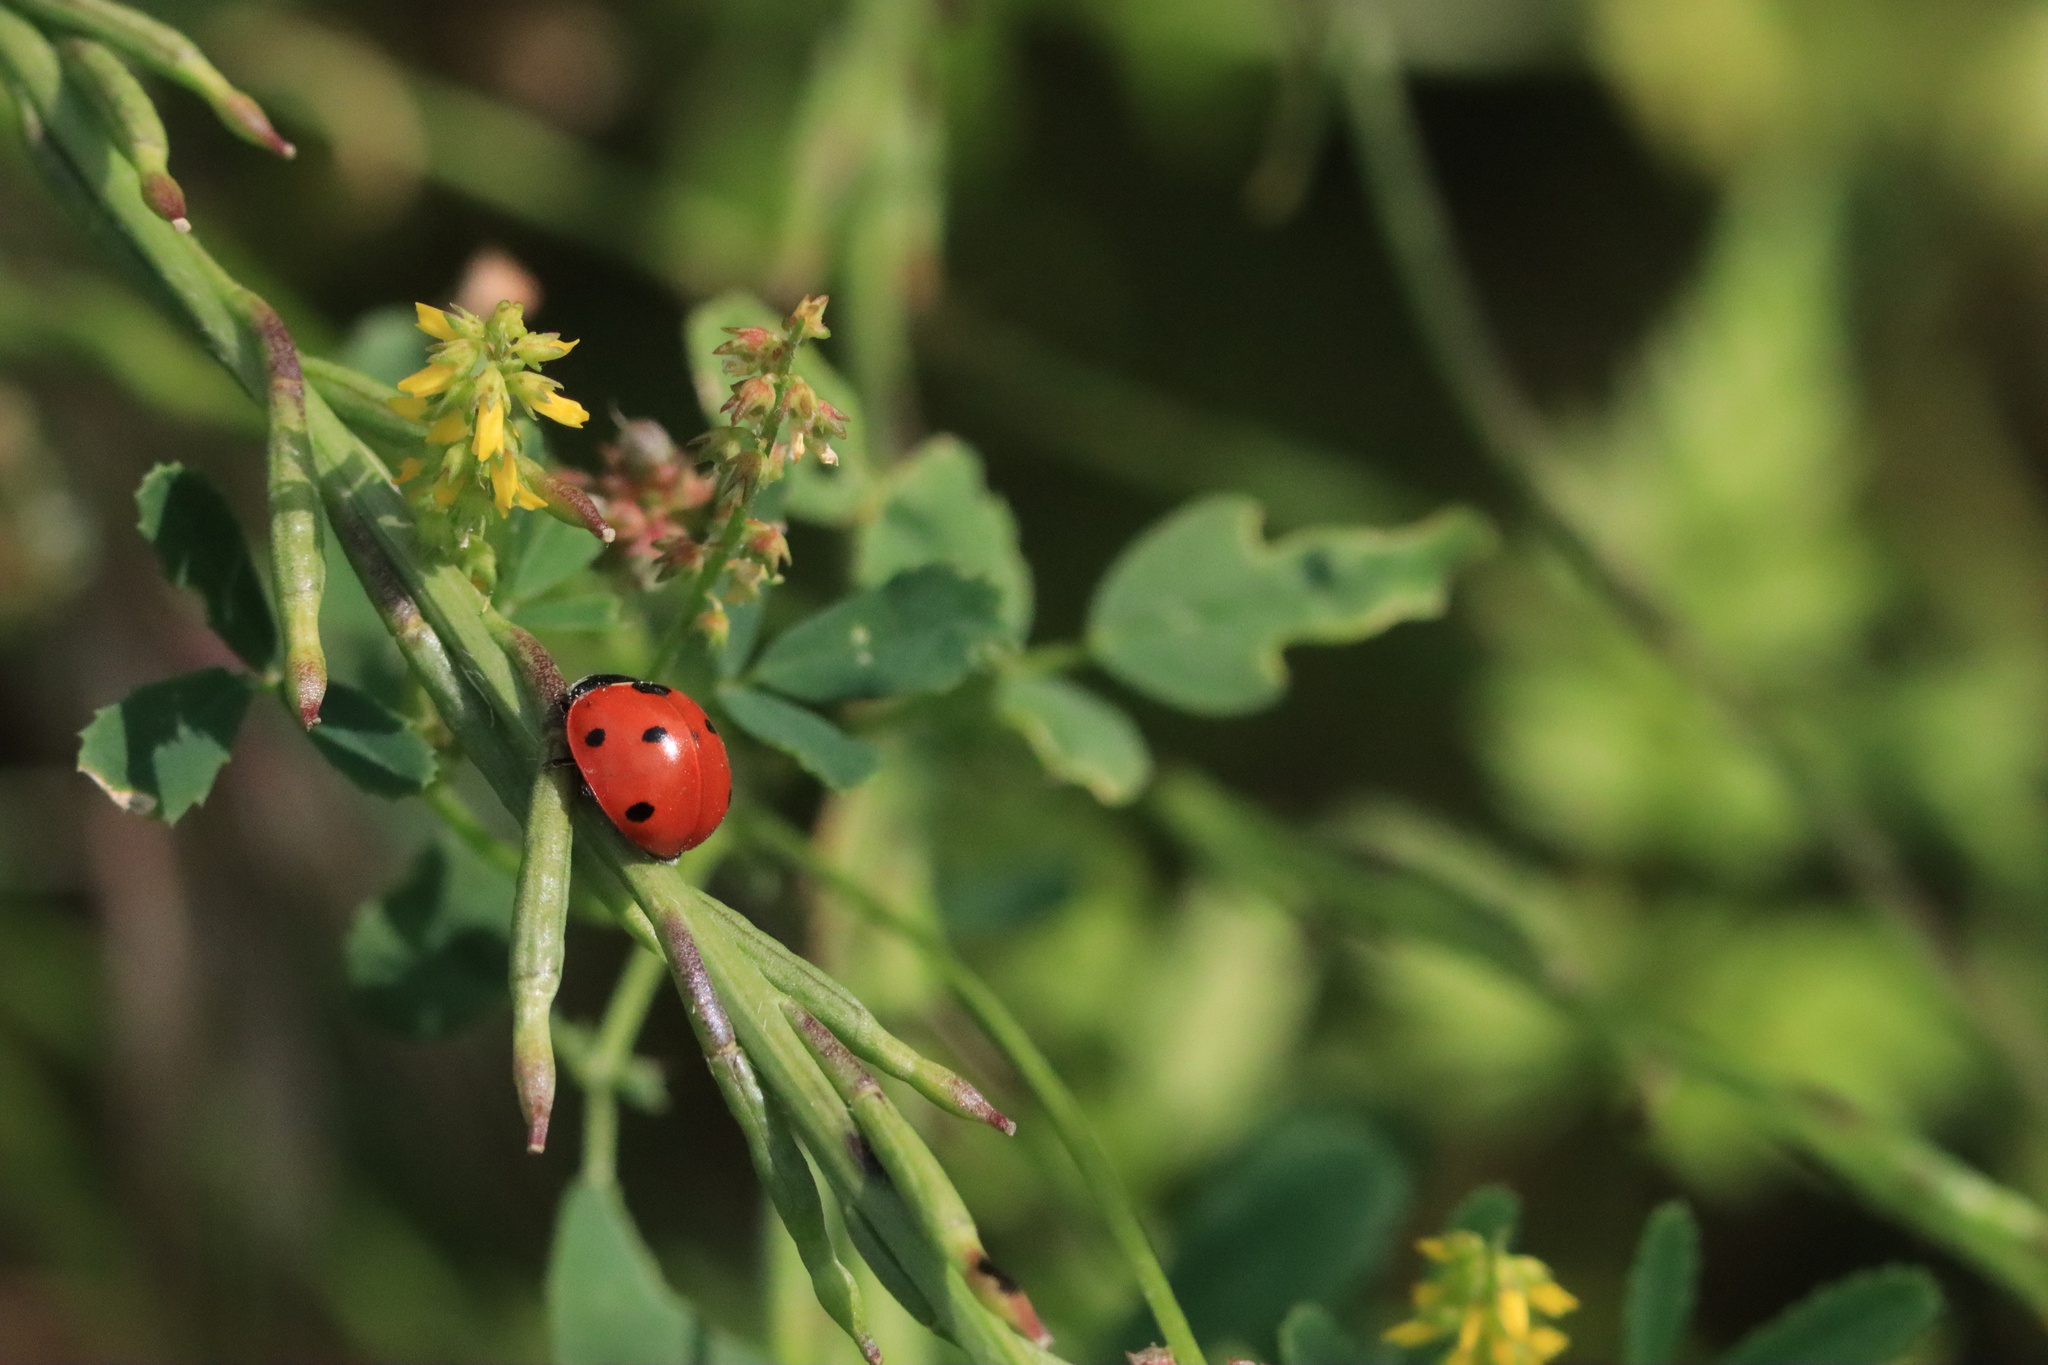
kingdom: Animalia
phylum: Arthropoda
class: Insecta
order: Coleoptera
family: Coccinellidae
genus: Coccinella
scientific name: Coccinella septempunctata
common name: Sevenspotted lady beetle
